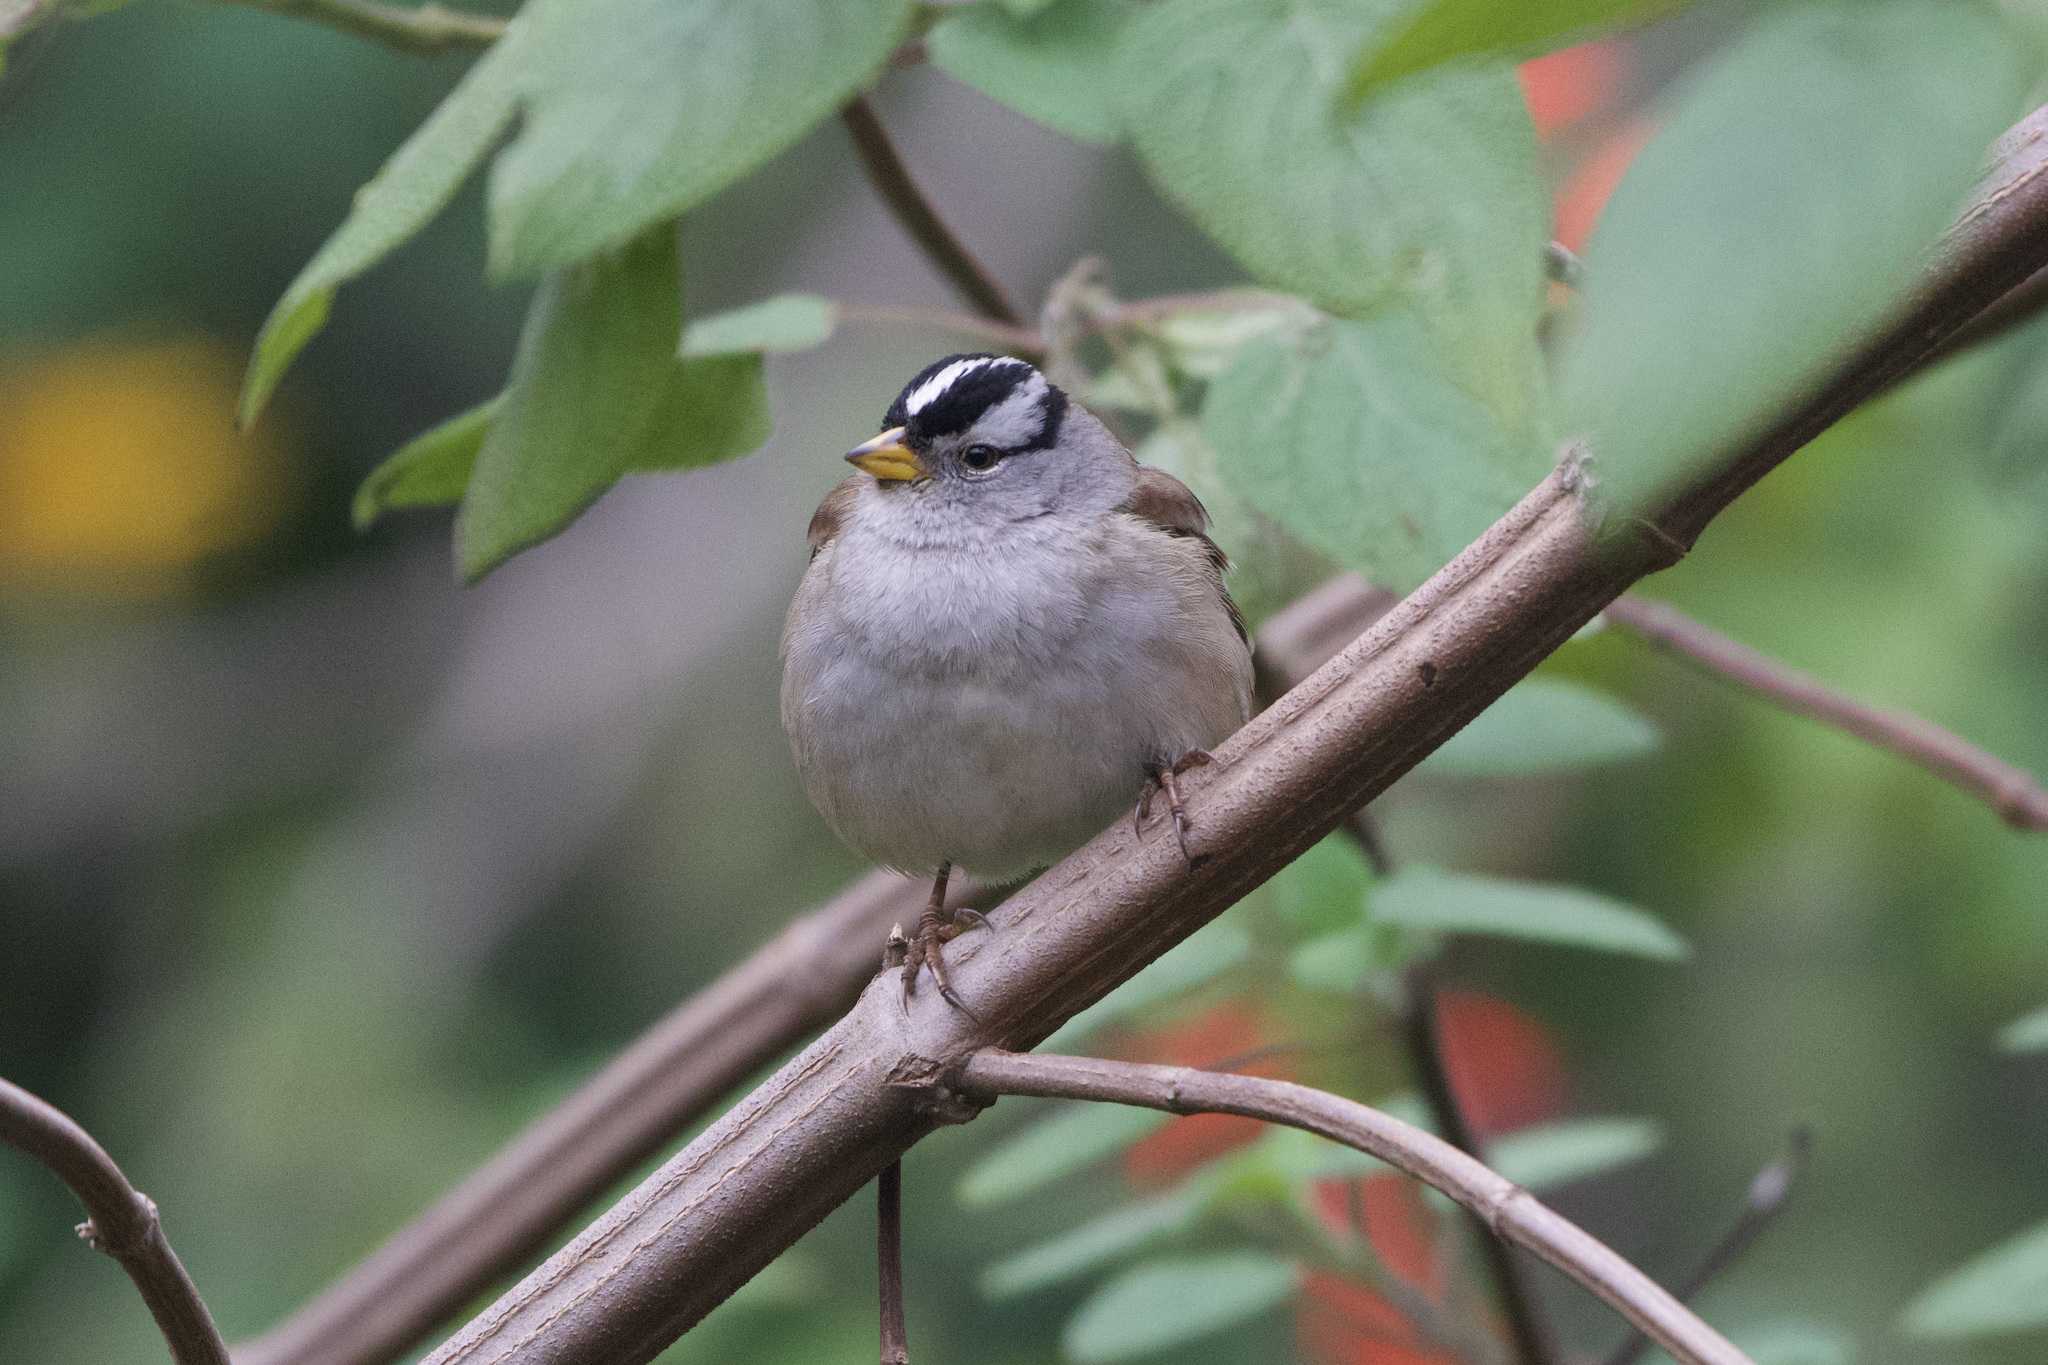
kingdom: Animalia
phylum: Chordata
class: Aves
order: Passeriformes
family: Passerellidae
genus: Zonotrichia
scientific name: Zonotrichia leucophrys
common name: White-crowned sparrow
